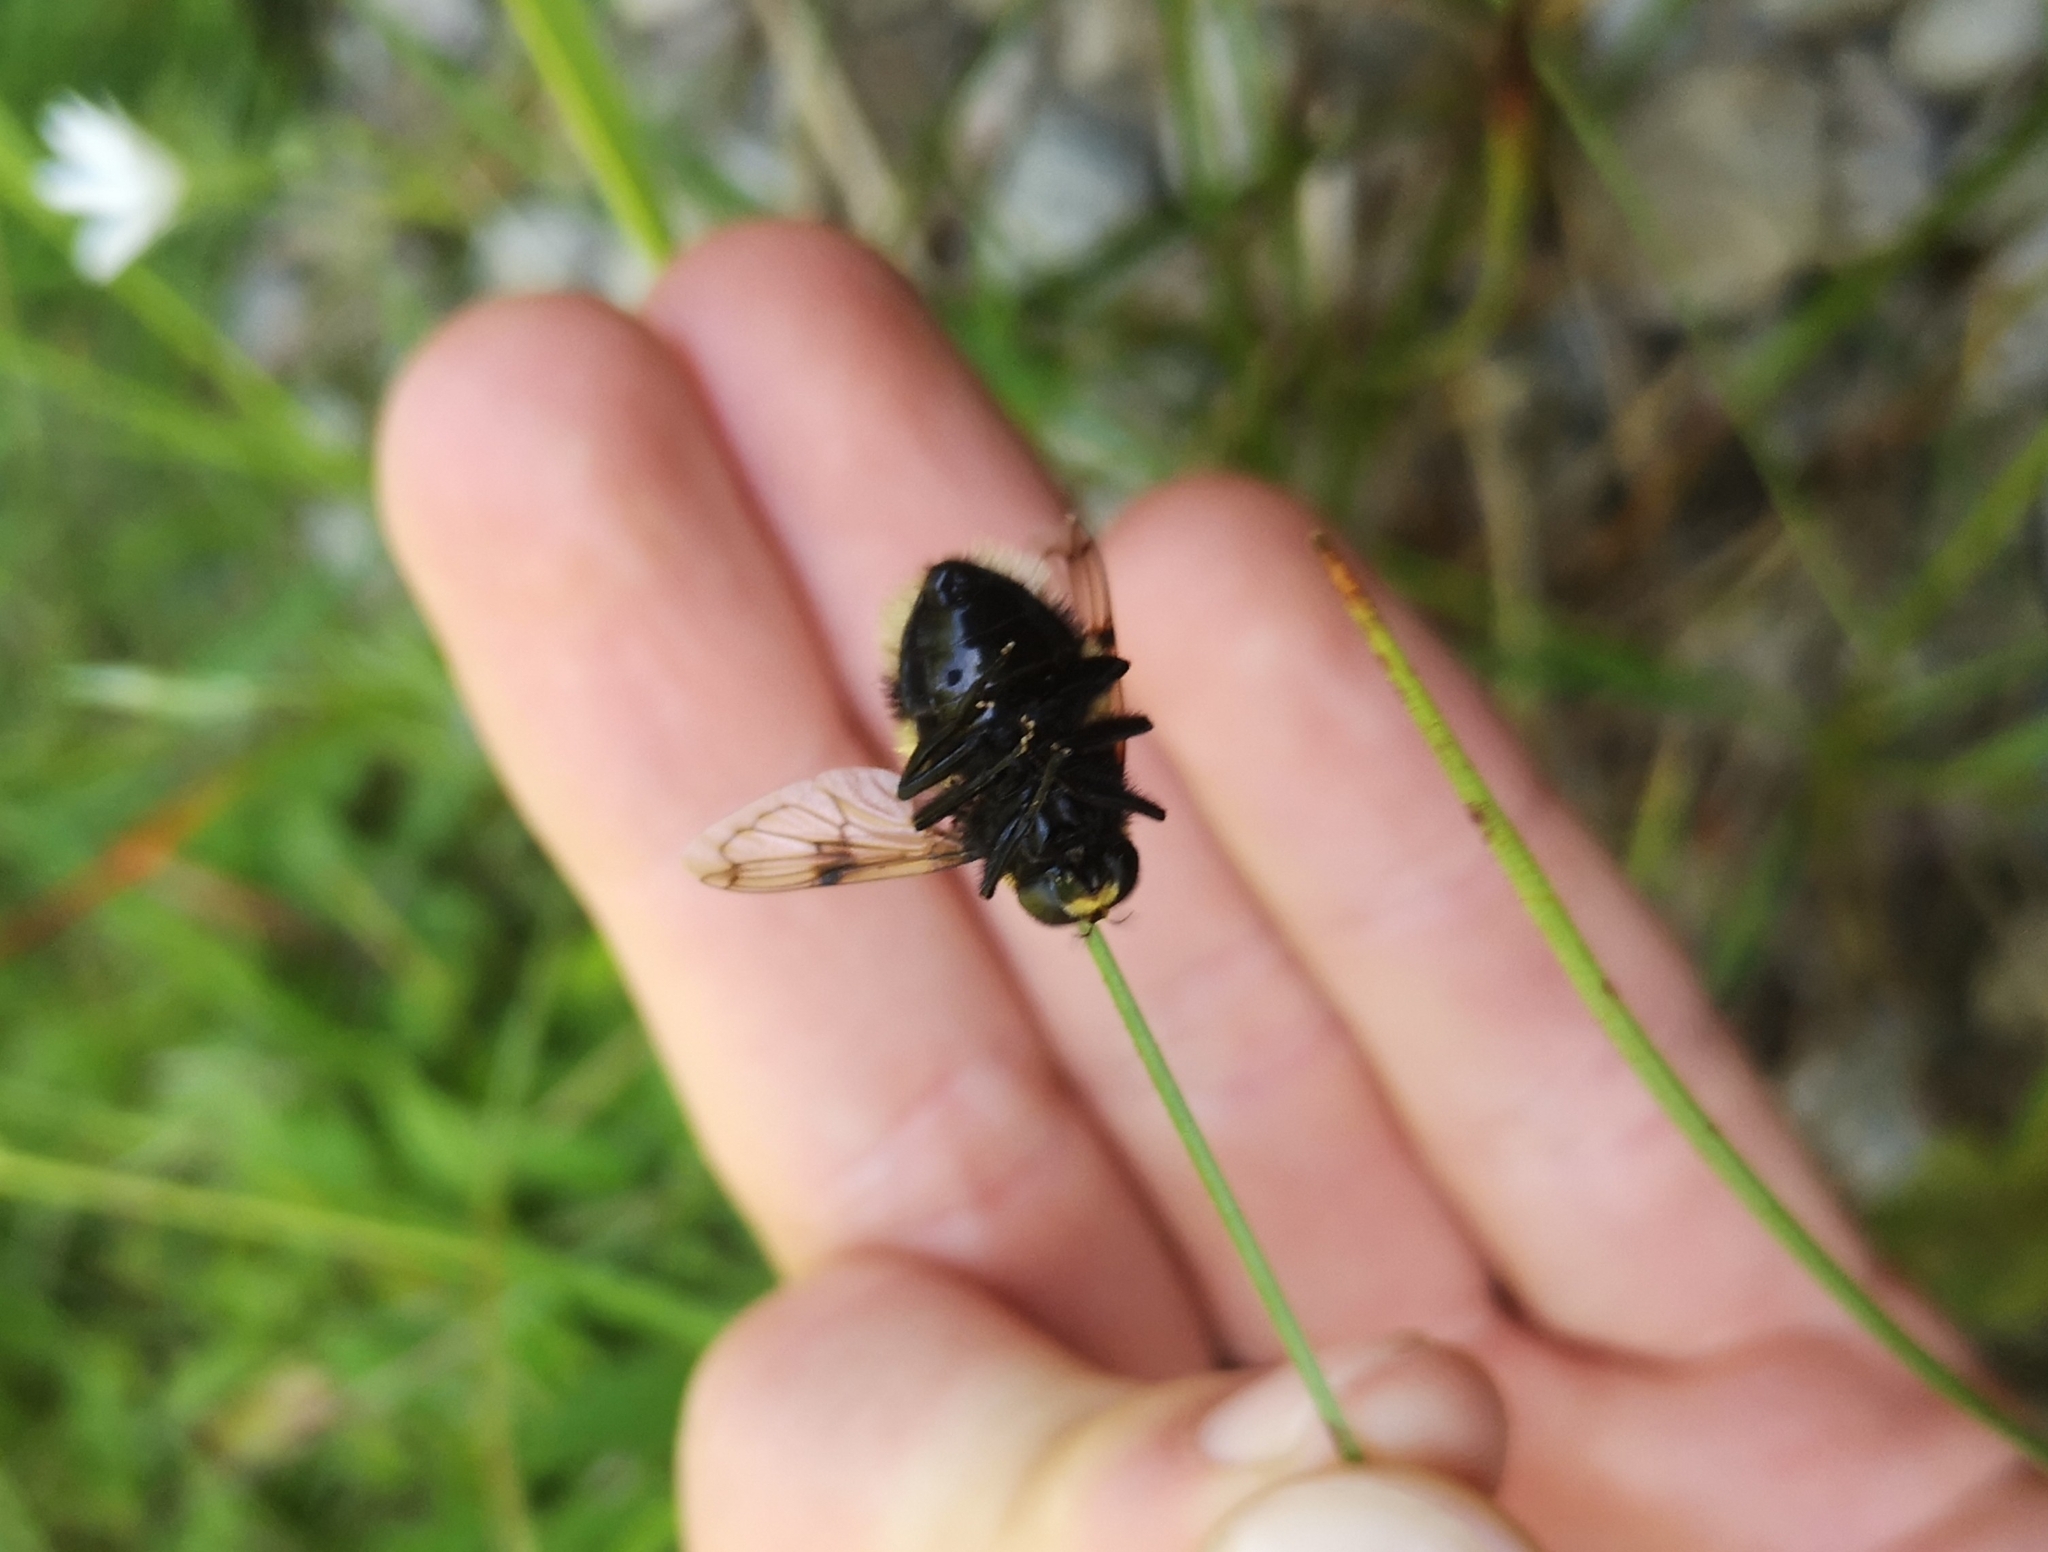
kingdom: Animalia
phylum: Arthropoda
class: Insecta
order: Diptera
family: Syrphidae
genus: Volucella
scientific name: Volucella bombylans
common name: Bumble bee hover fly
